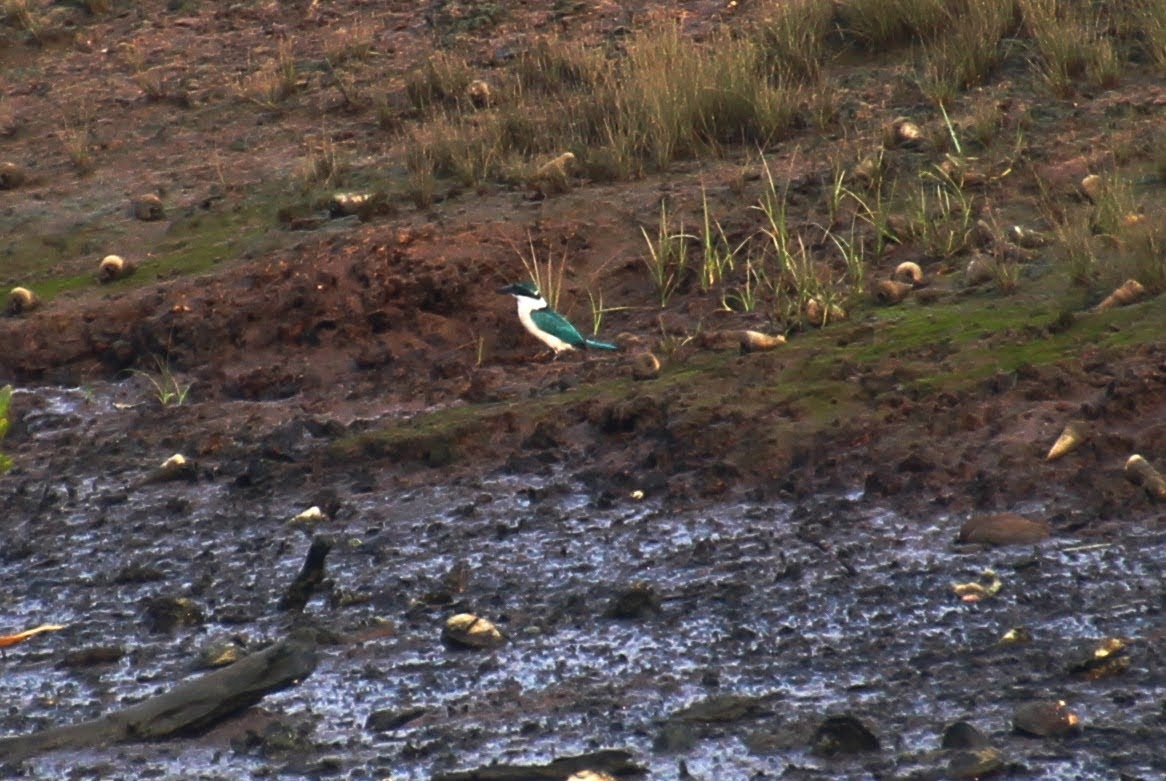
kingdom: Animalia
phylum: Chordata
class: Aves
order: Coraciiformes
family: Alcedinidae
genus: Todiramphus
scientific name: Todiramphus chloris
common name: Collared kingfisher
